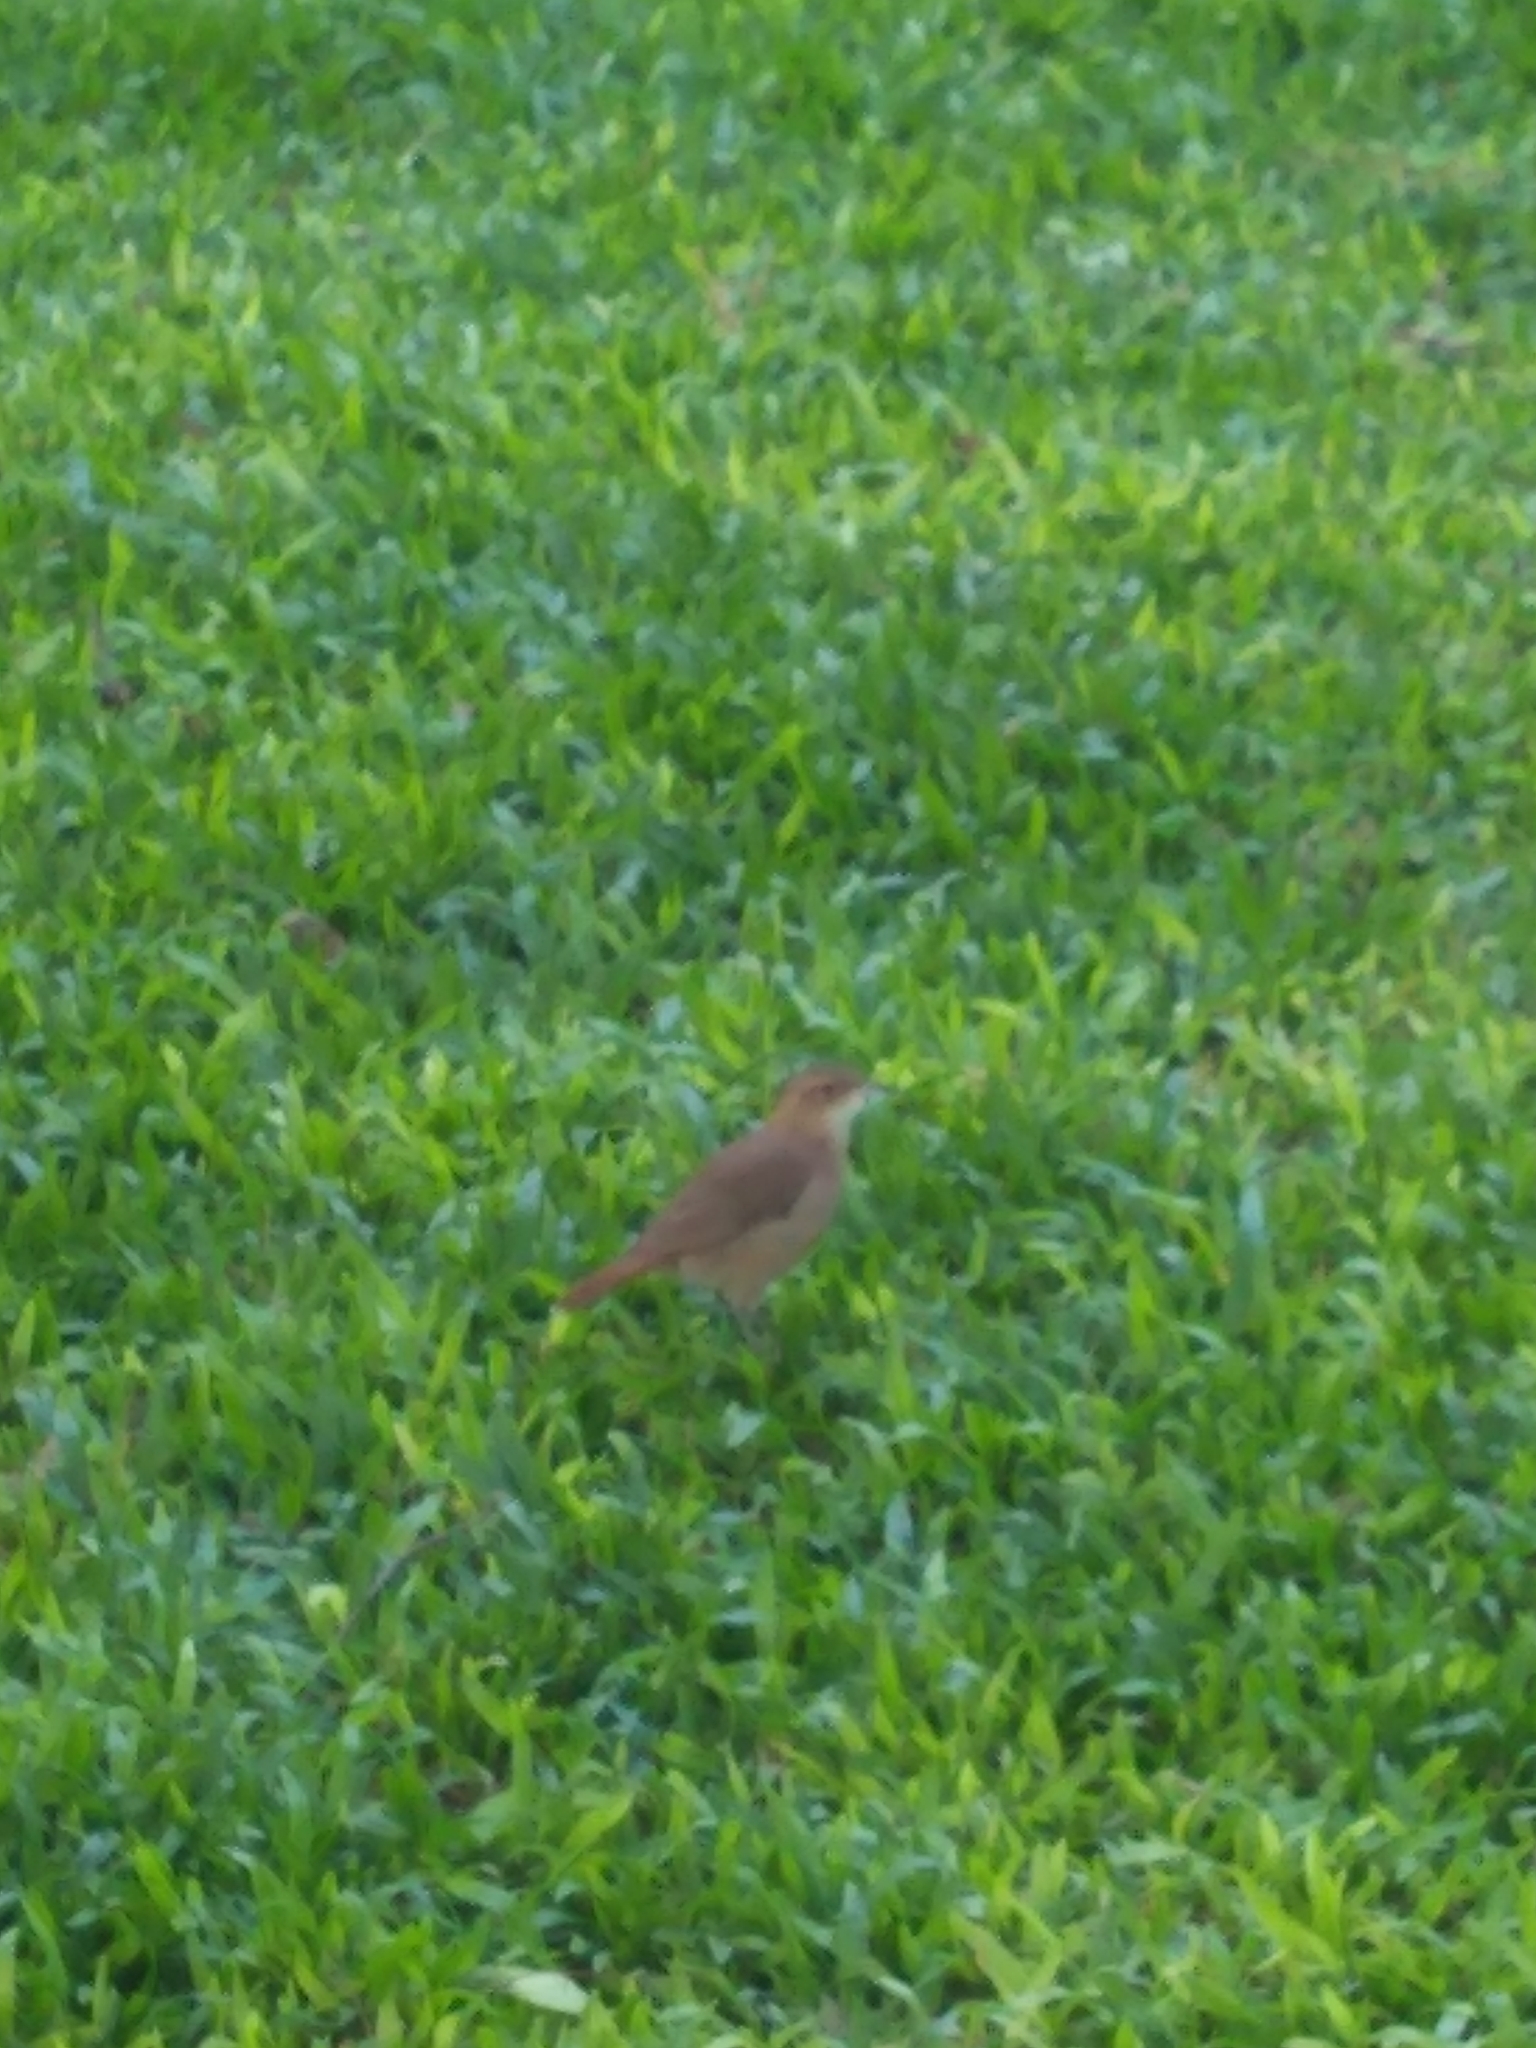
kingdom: Animalia
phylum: Chordata
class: Aves
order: Passeriformes
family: Furnariidae
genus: Furnarius
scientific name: Furnarius rufus
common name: Rufous hornero
